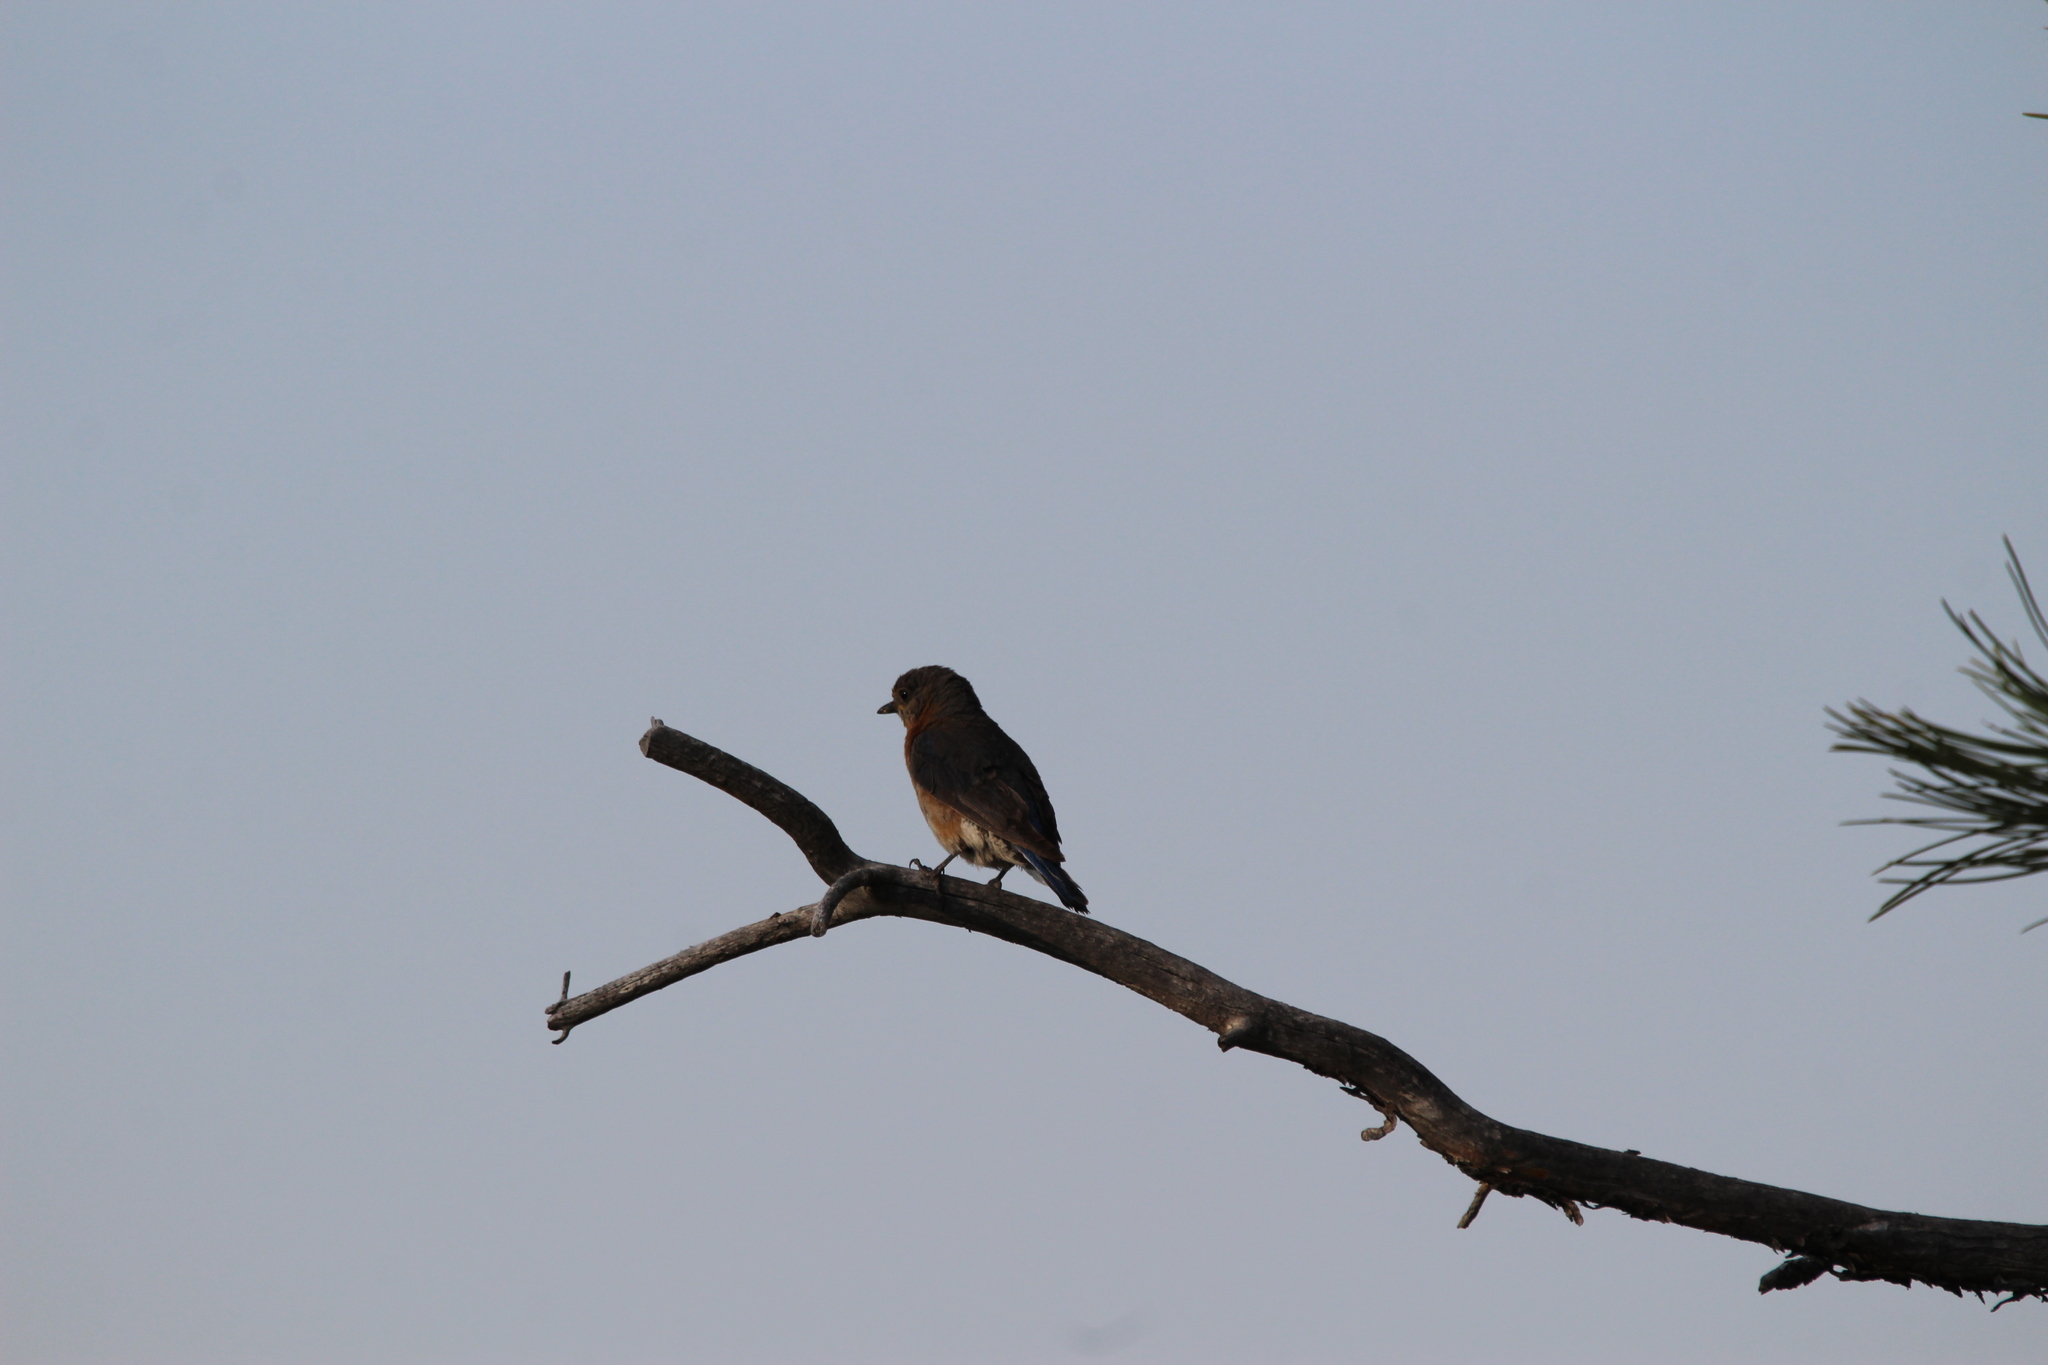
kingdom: Animalia
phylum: Chordata
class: Aves
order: Passeriformes
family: Turdidae
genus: Sialia
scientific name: Sialia sialis
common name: Eastern bluebird
